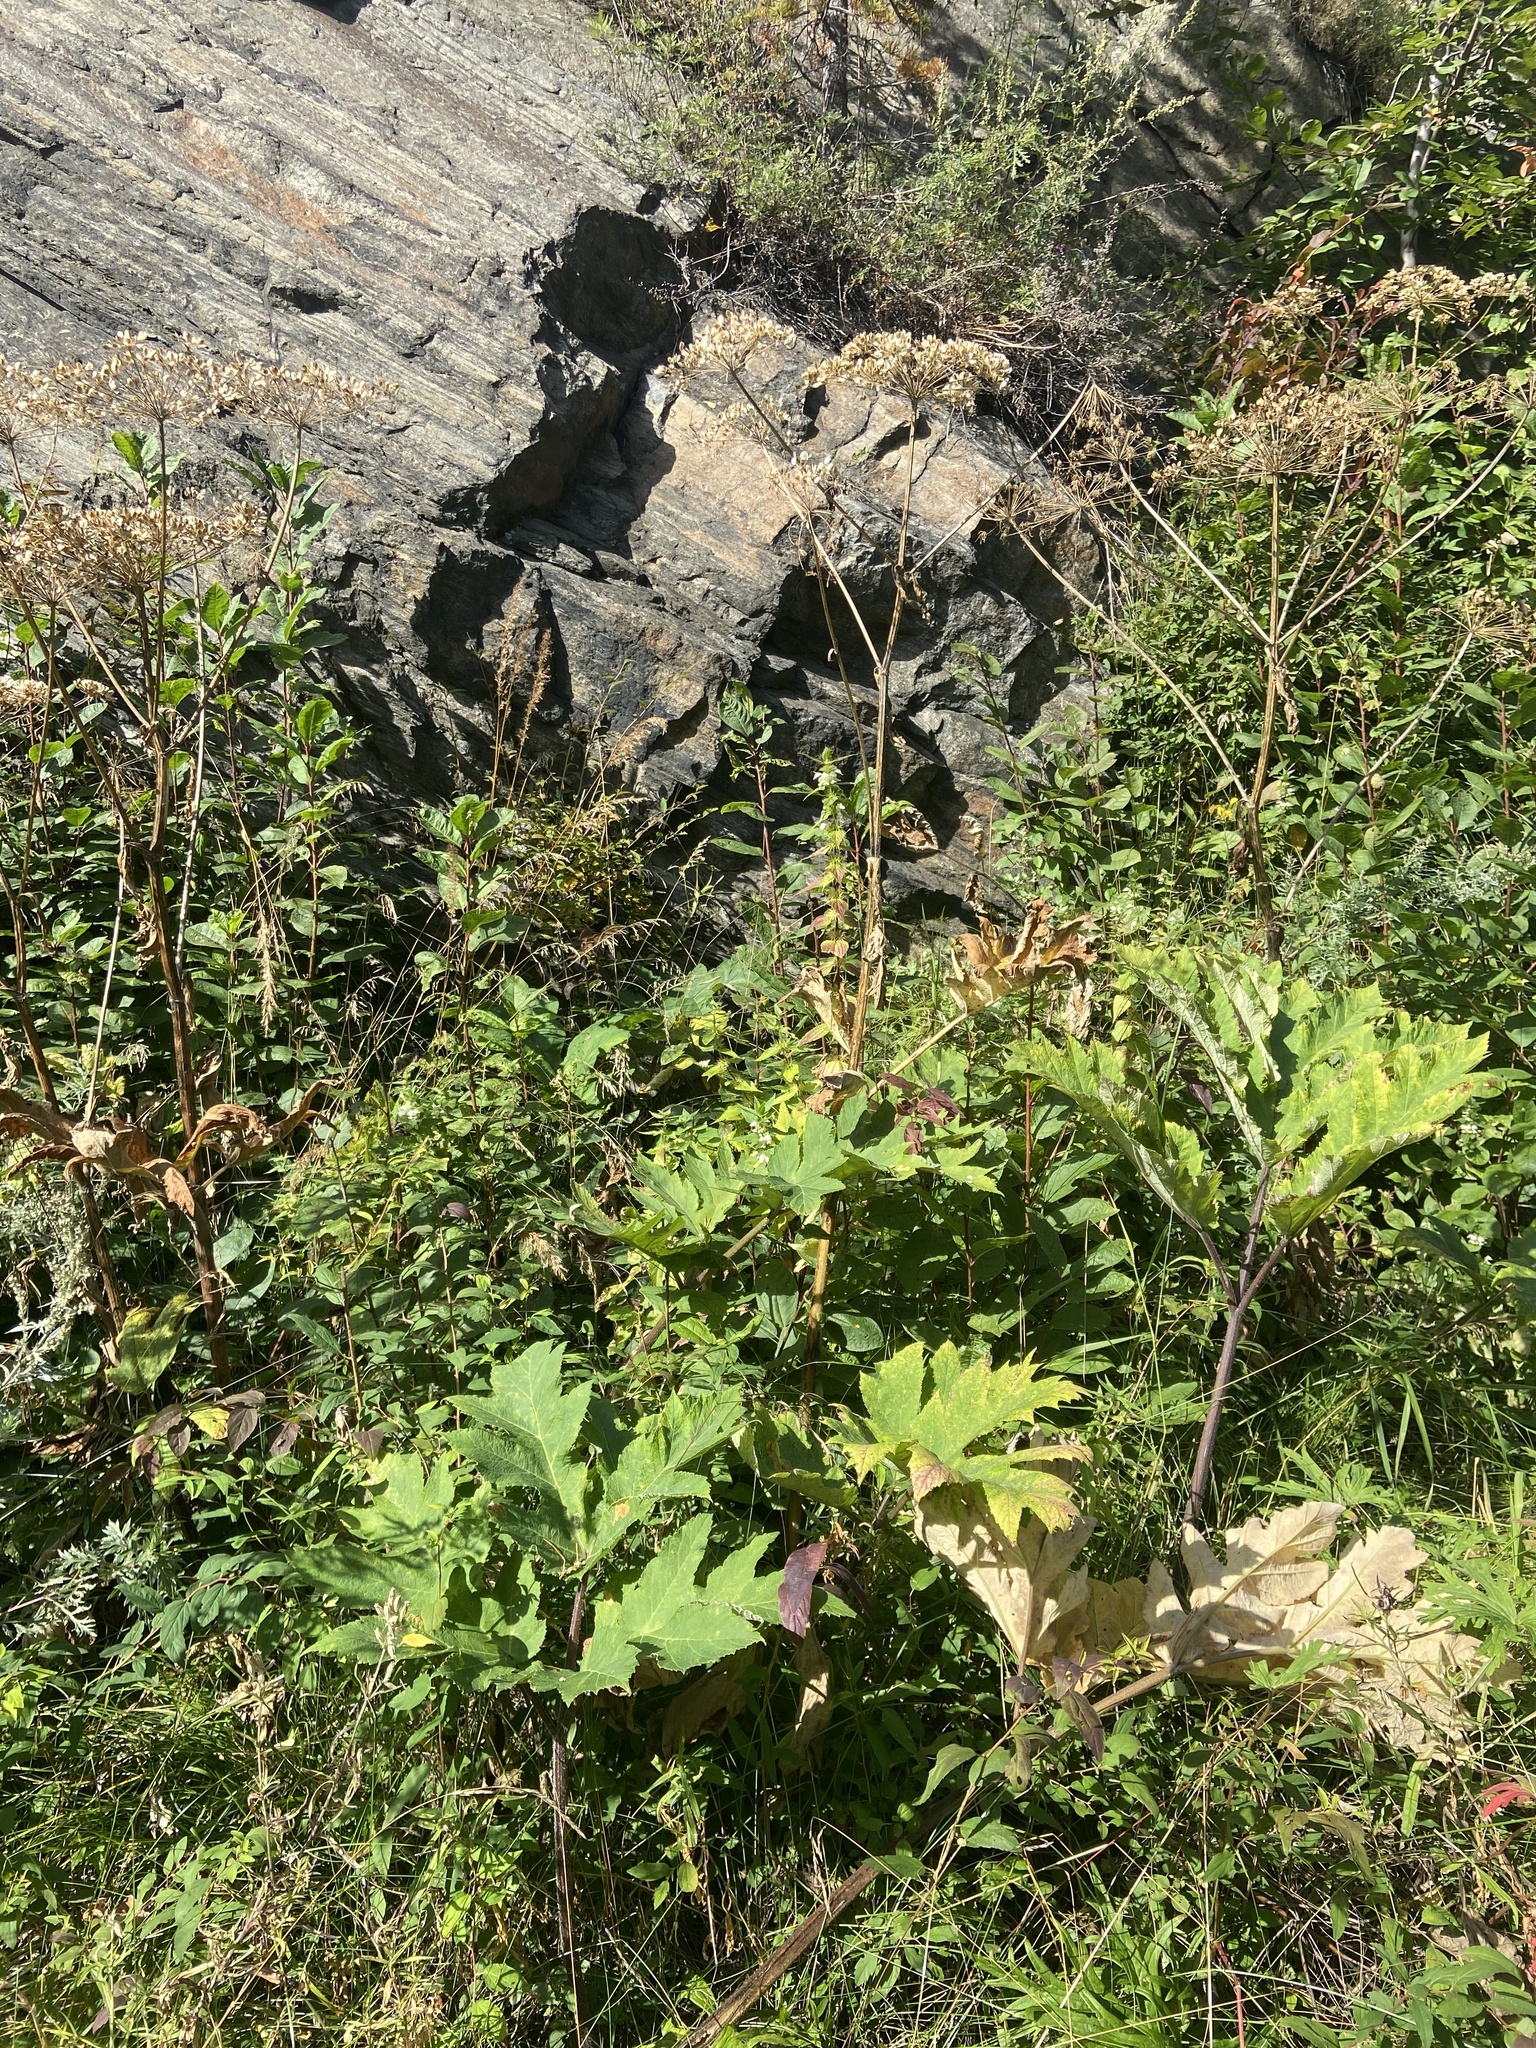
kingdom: Plantae
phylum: Tracheophyta
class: Magnoliopsida
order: Apiales
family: Apiaceae
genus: Heracleum
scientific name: Heracleum dissectum
